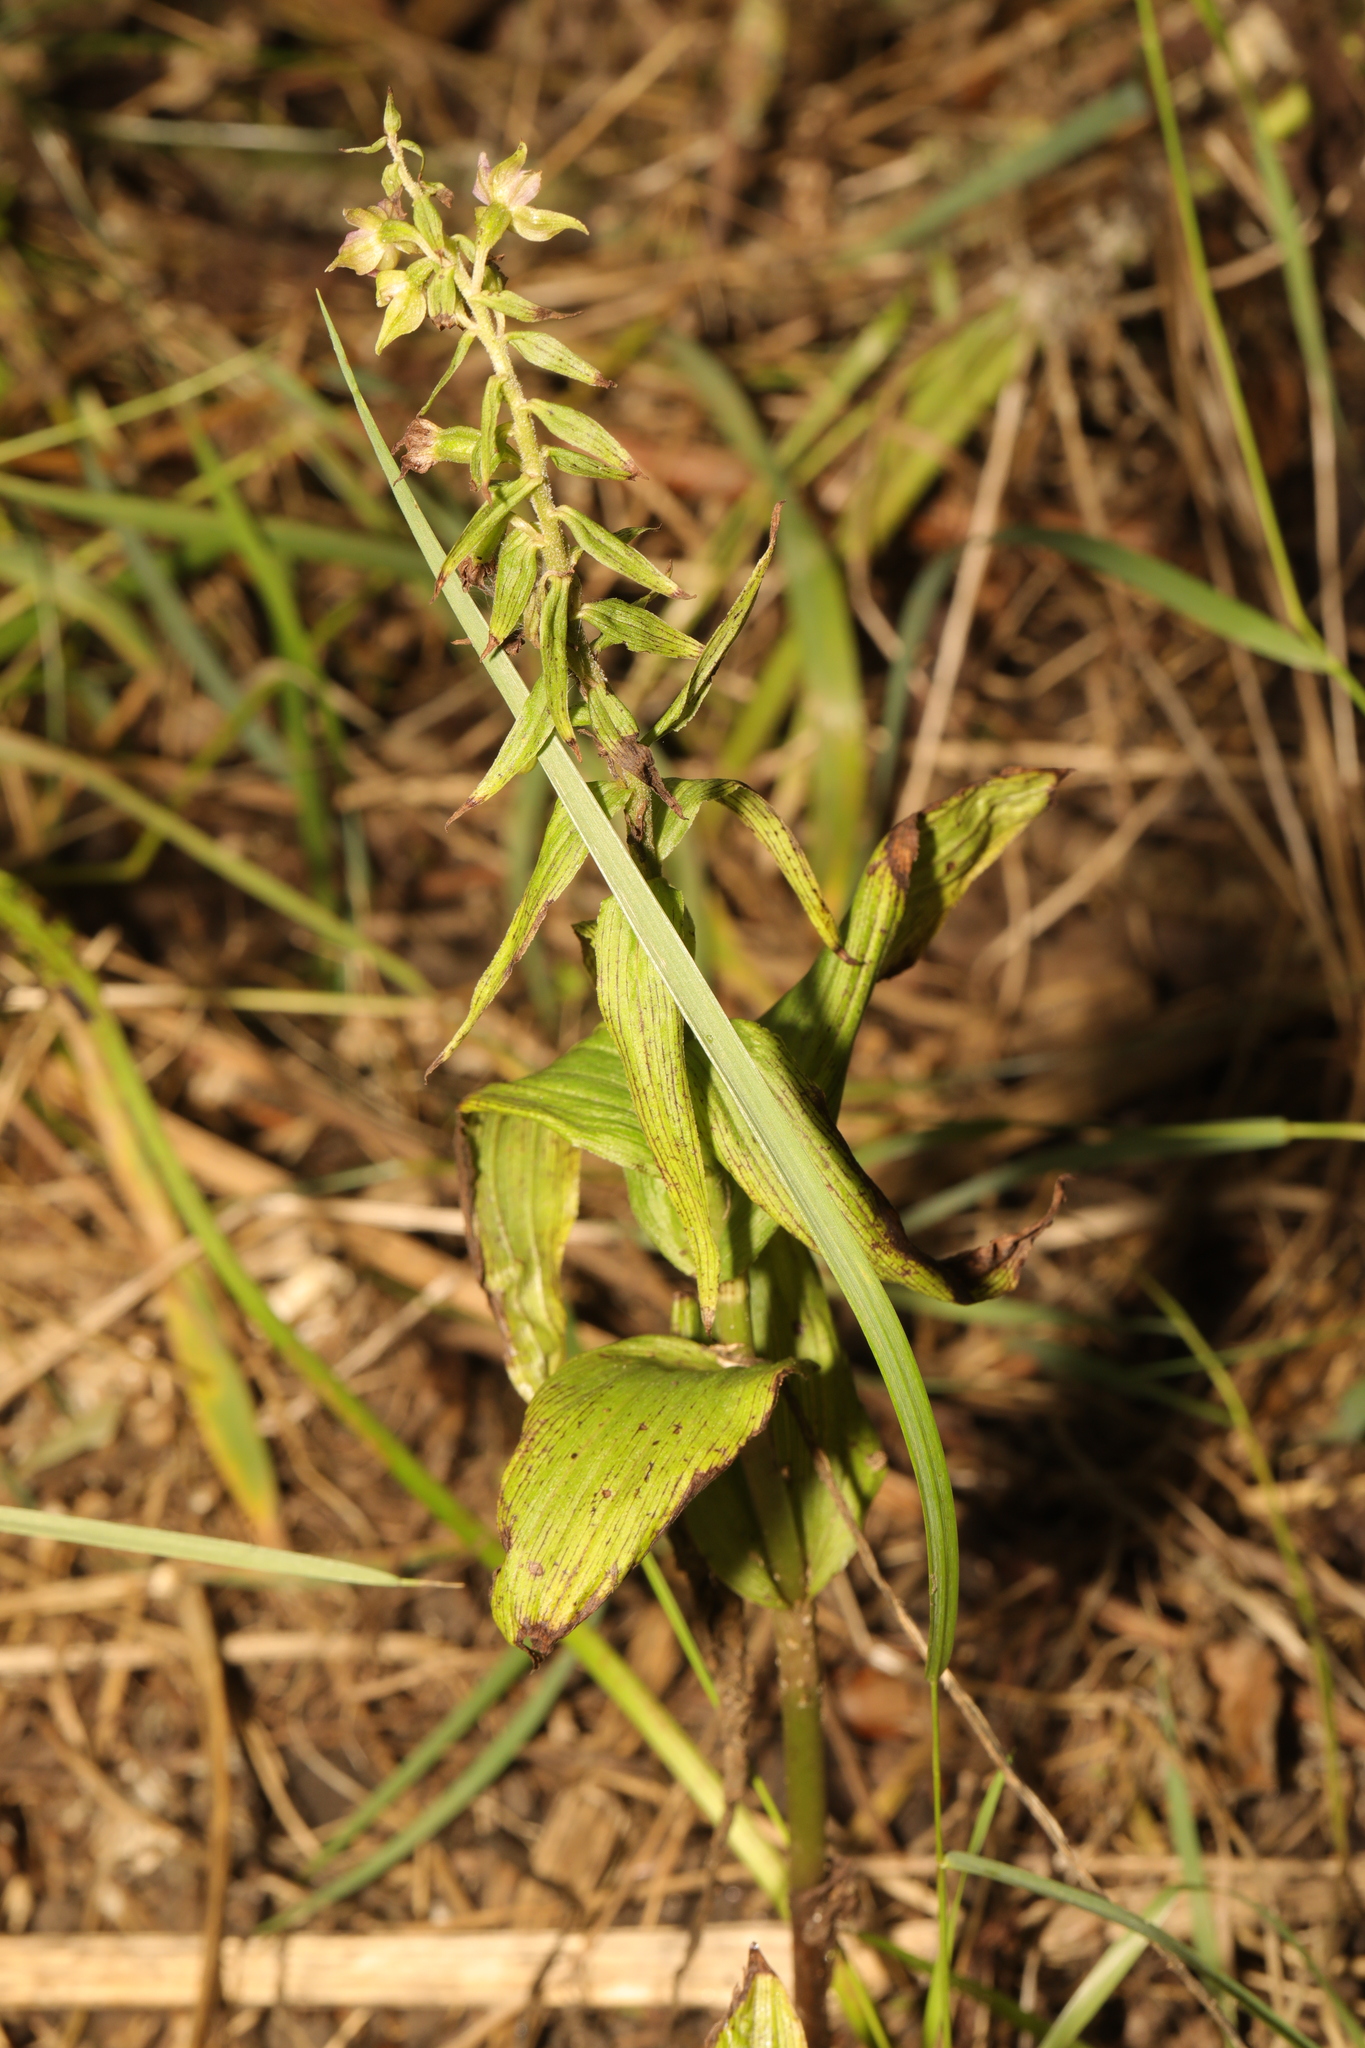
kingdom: Plantae
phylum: Tracheophyta
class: Liliopsida
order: Asparagales
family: Orchidaceae
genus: Epipactis
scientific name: Epipactis helleborine
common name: Broad-leaved helleborine
